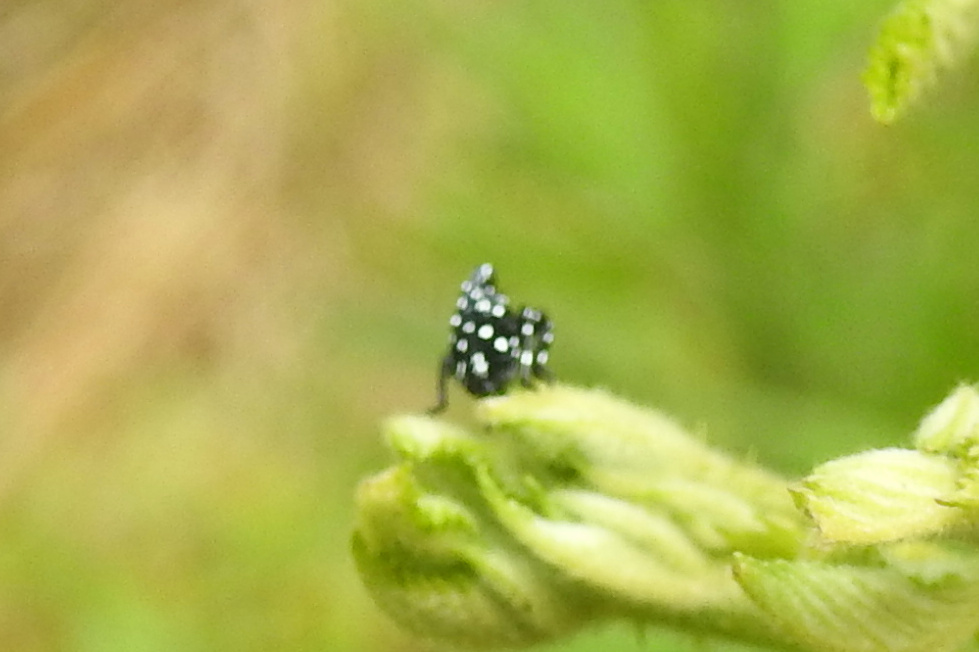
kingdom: Animalia
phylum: Arthropoda
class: Insecta
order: Hemiptera
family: Fulgoridae
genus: Lycorma
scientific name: Lycorma delicatula
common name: Spotted lanternfly
